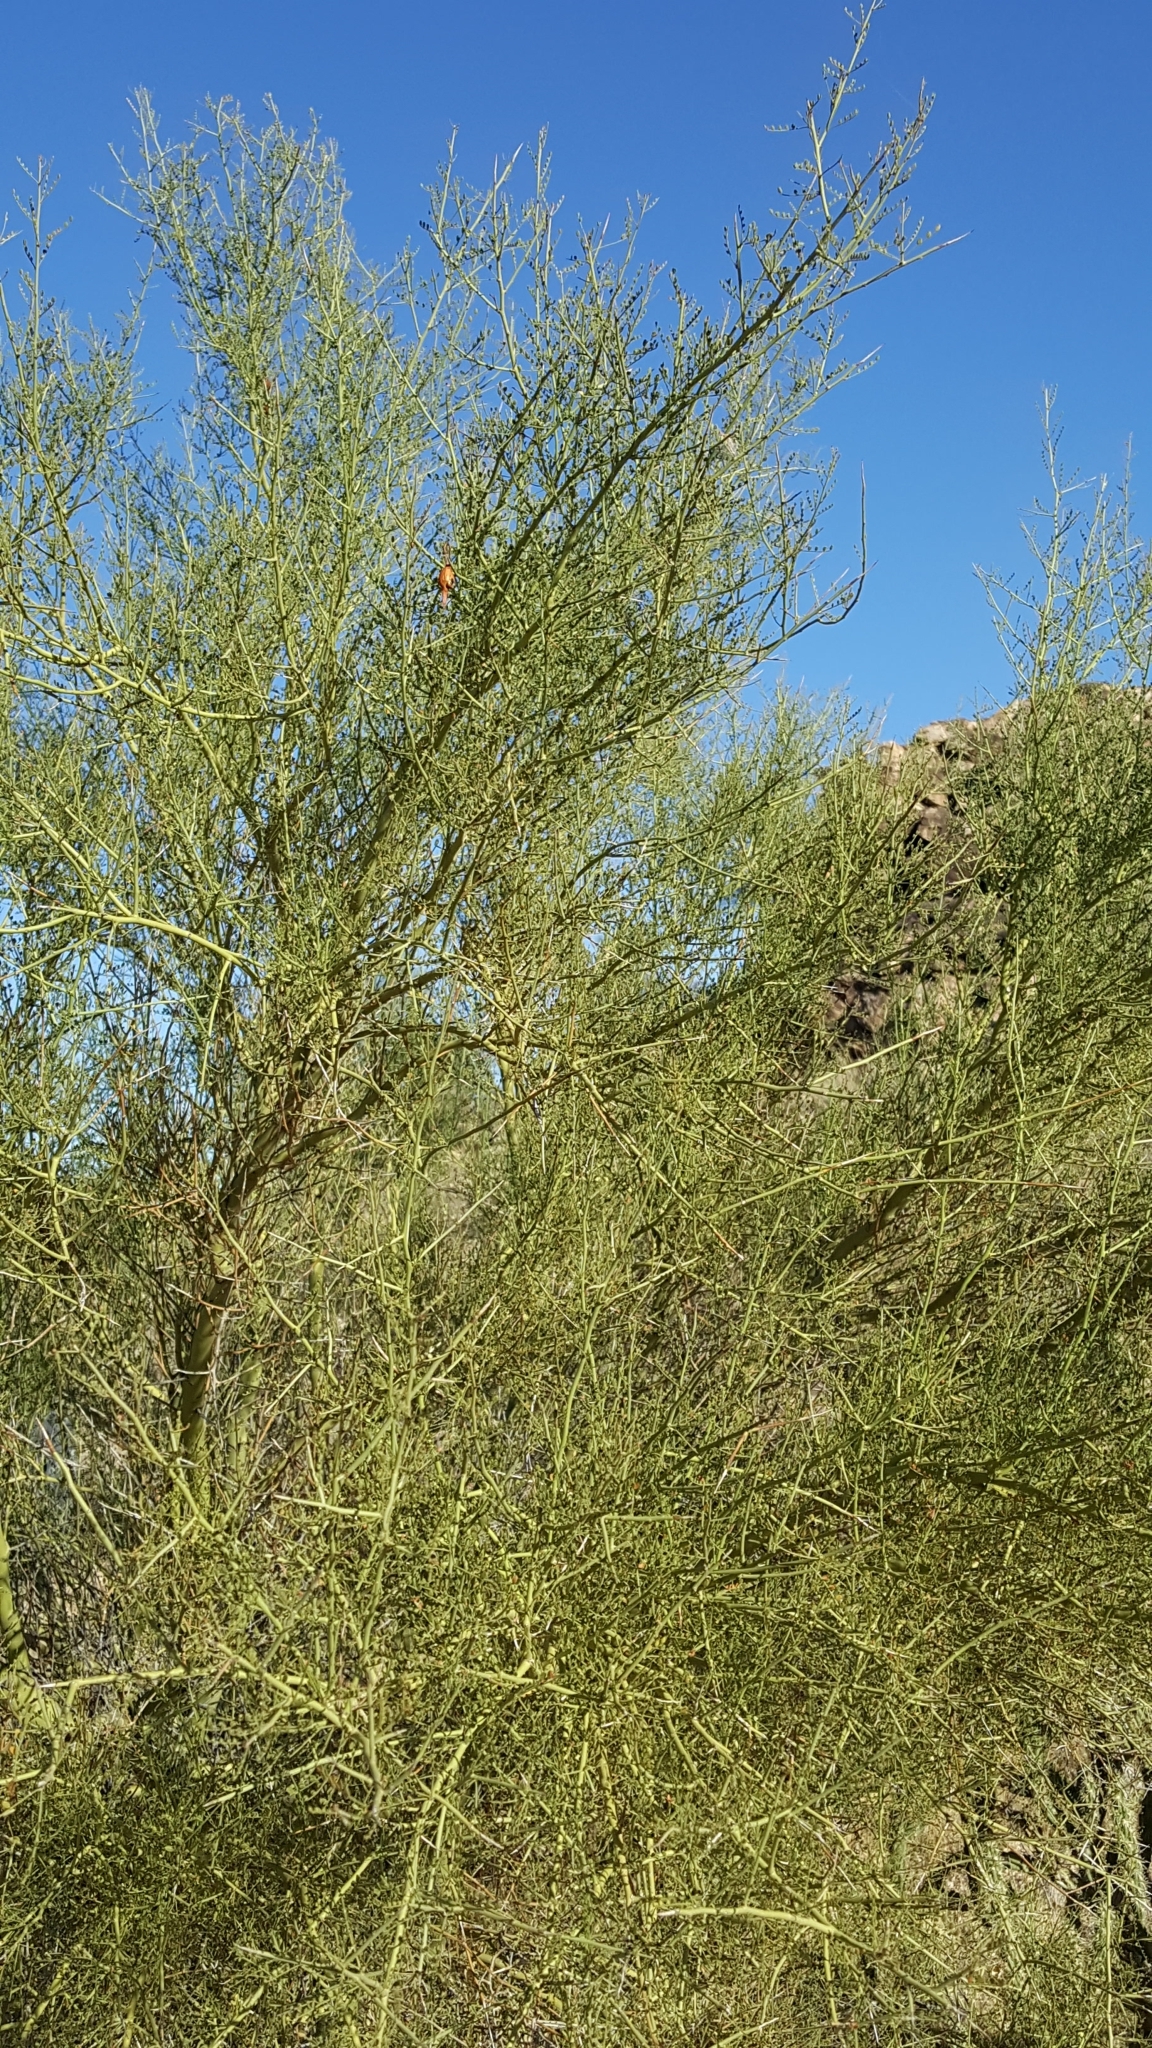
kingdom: Plantae
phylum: Tracheophyta
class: Magnoliopsida
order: Fabales
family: Fabaceae
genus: Parkinsonia
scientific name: Parkinsonia microphylla
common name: Yellow paloverde
